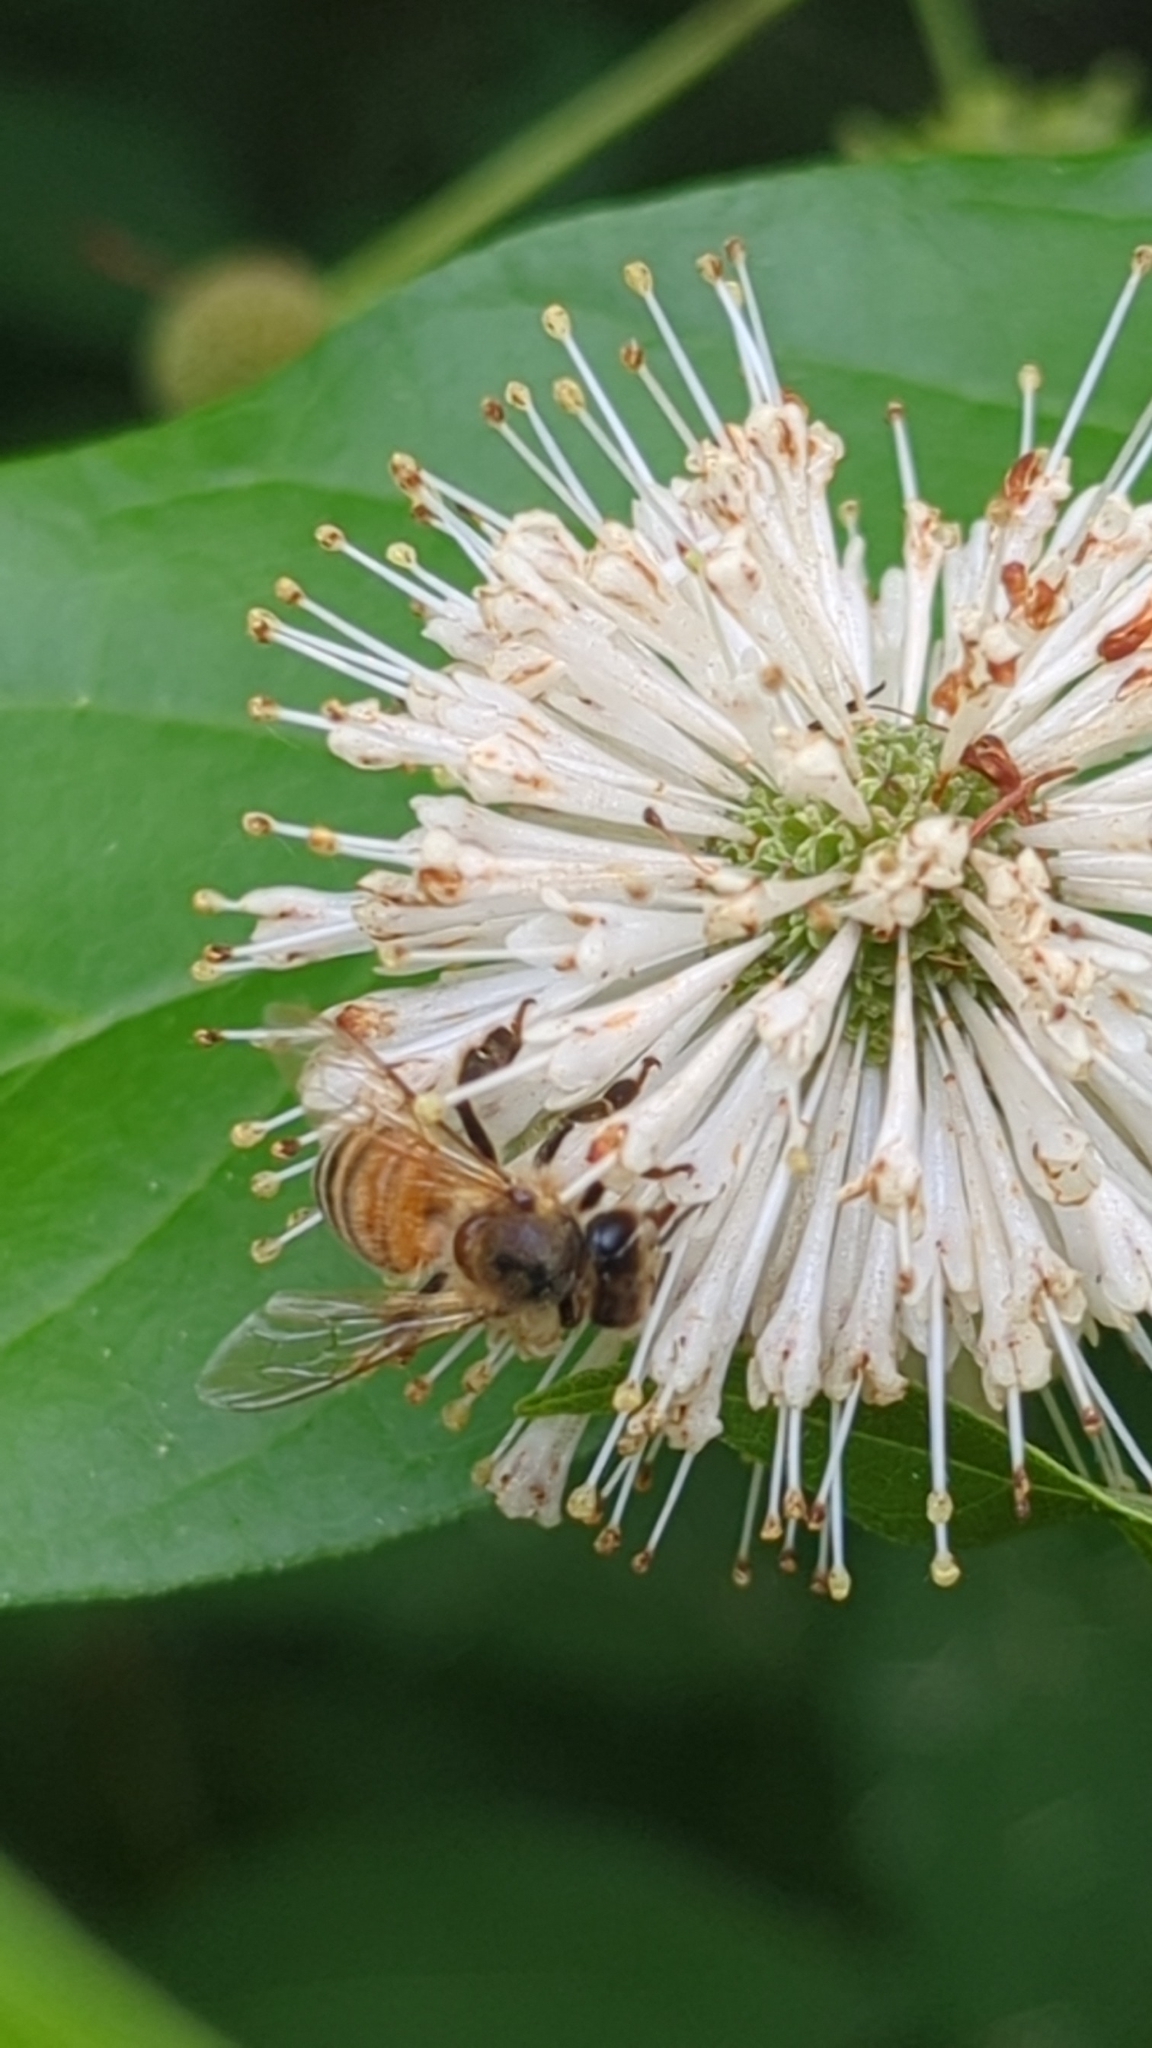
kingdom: Animalia
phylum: Arthropoda
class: Insecta
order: Hymenoptera
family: Apidae
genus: Apis
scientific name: Apis mellifera
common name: Honey bee
